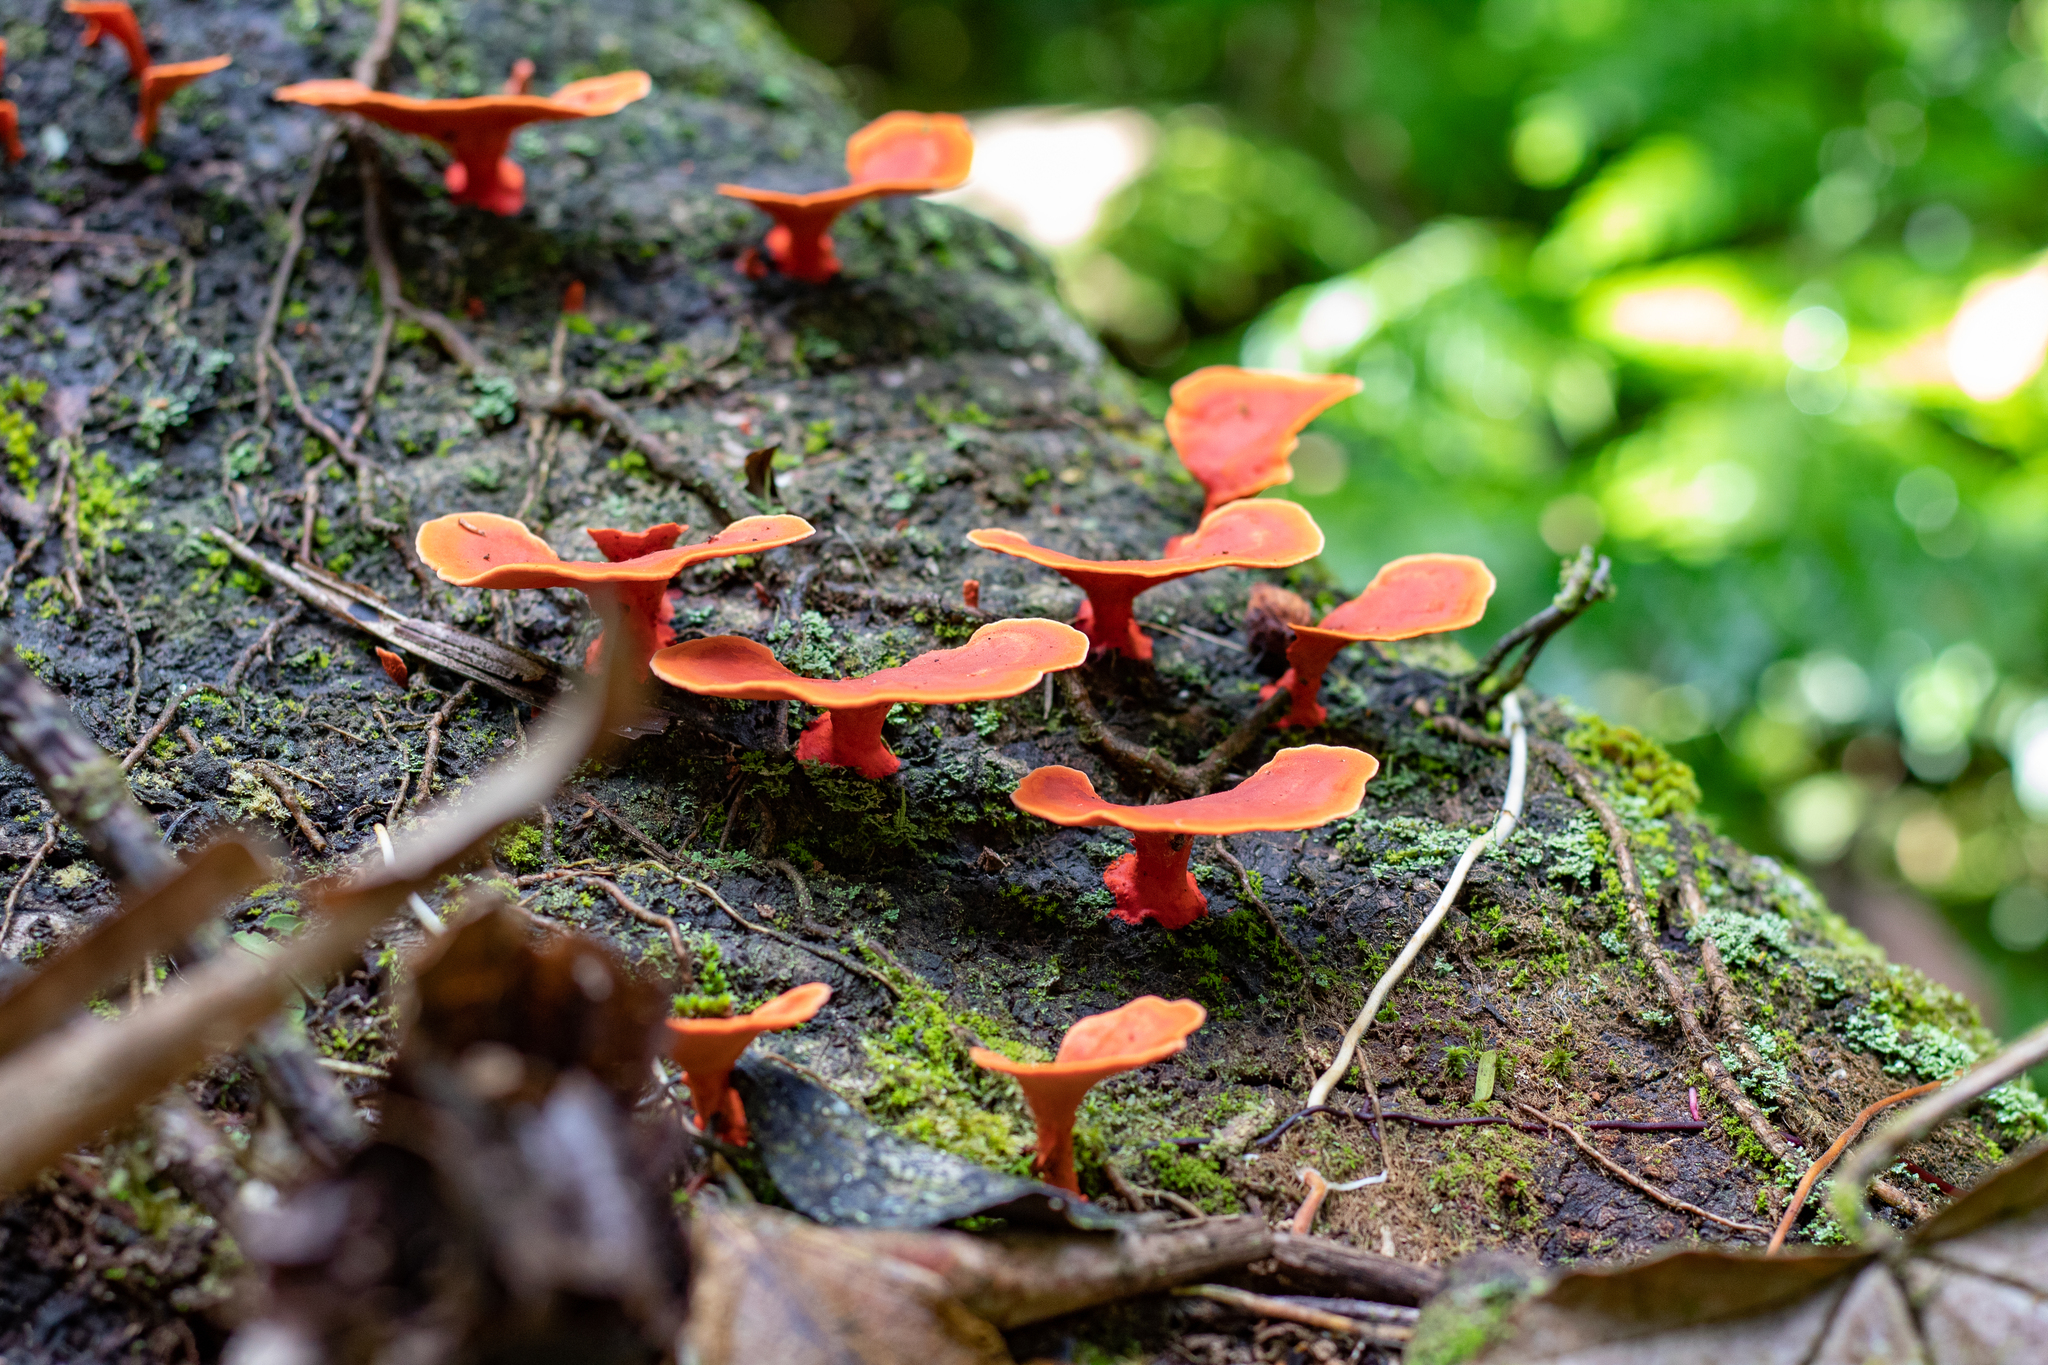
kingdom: Fungi
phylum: Basidiomycota
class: Agaricomycetes
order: Polyporales
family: Polyporaceae
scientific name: Polyporaceae
